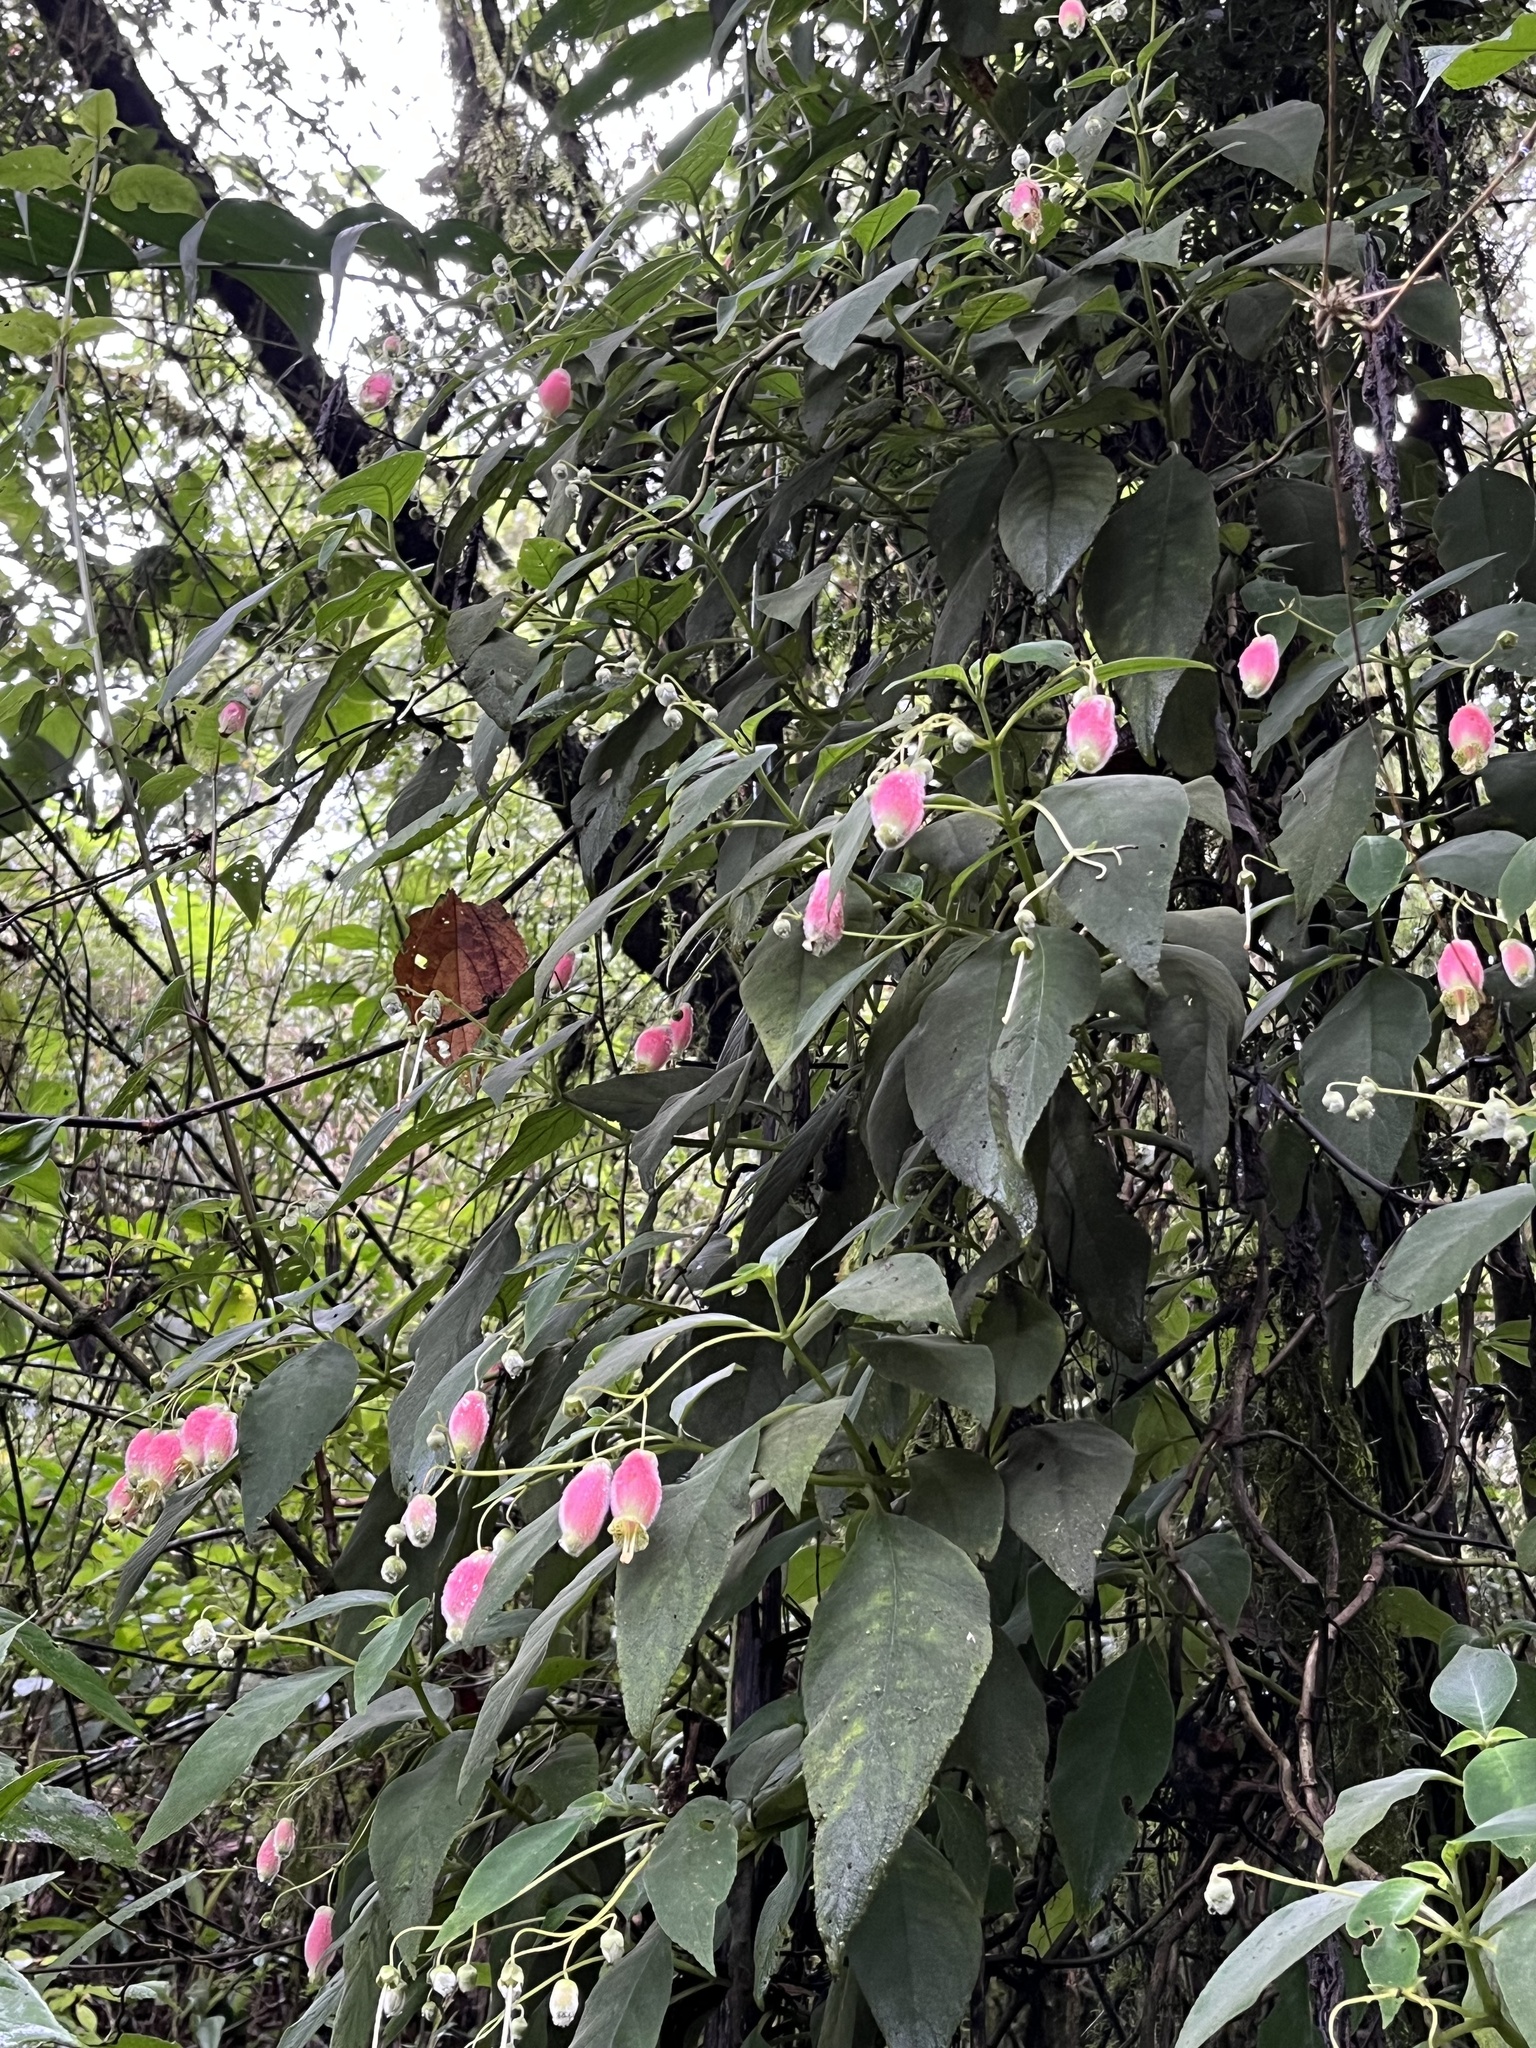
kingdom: Plantae
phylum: Tracheophyta
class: Magnoliopsida
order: Lamiales
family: Gesneriaceae
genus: Kohleria
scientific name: Kohleria affinis
